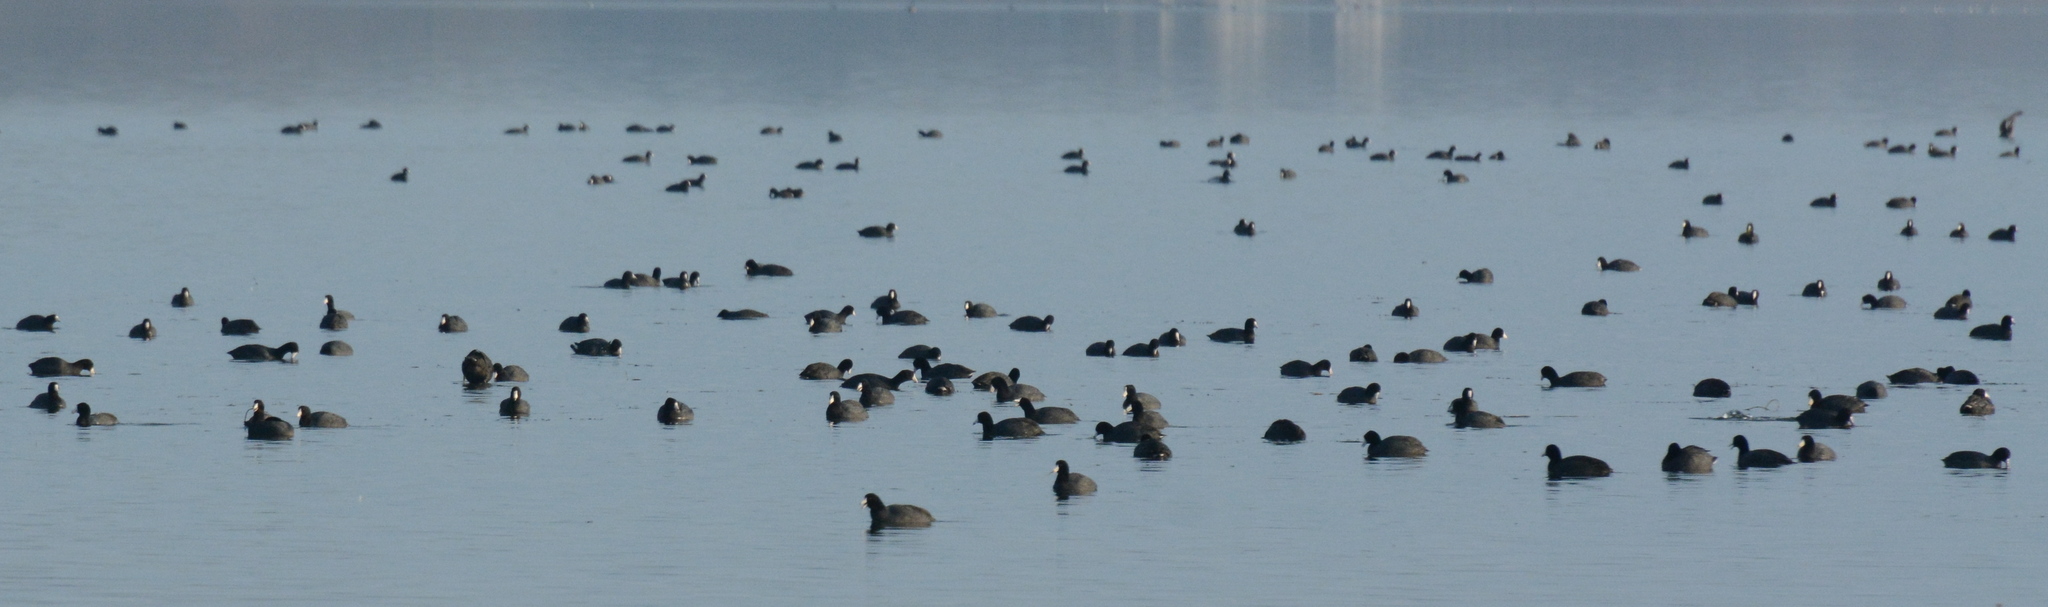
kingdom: Animalia
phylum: Chordata
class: Aves
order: Gruiformes
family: Rallidae
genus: Fulica
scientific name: Fulica americana
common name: American coot
